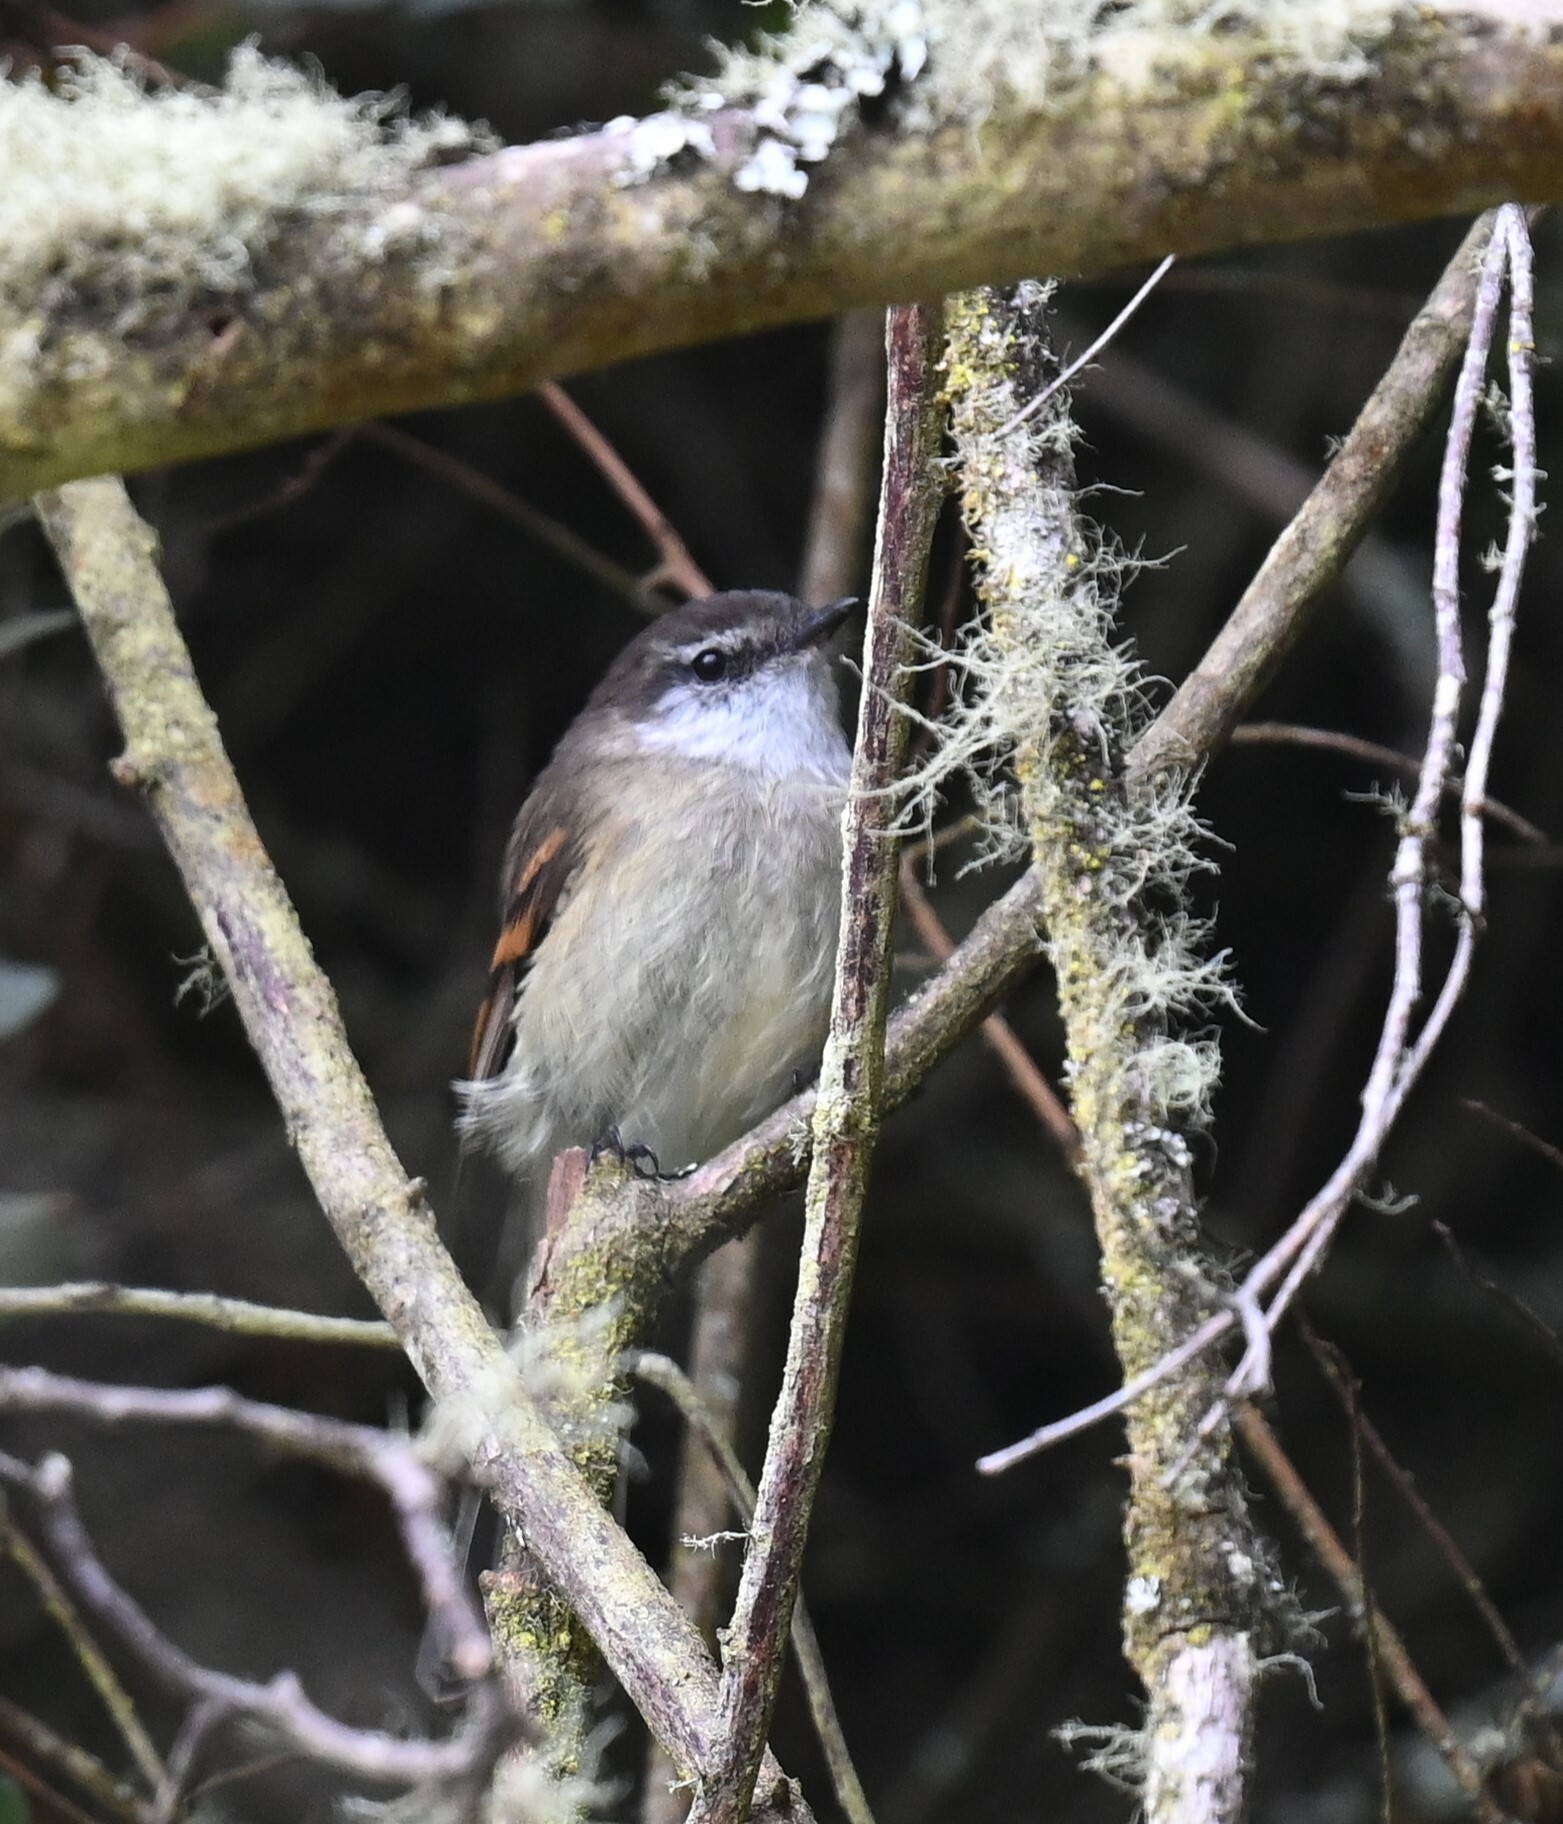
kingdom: Animalia
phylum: Chordata
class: Aves
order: Passeriformes
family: Tyrannidae
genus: Mecocerculus
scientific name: Mecocerculus leucophrys
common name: White-throated tyrannulet
